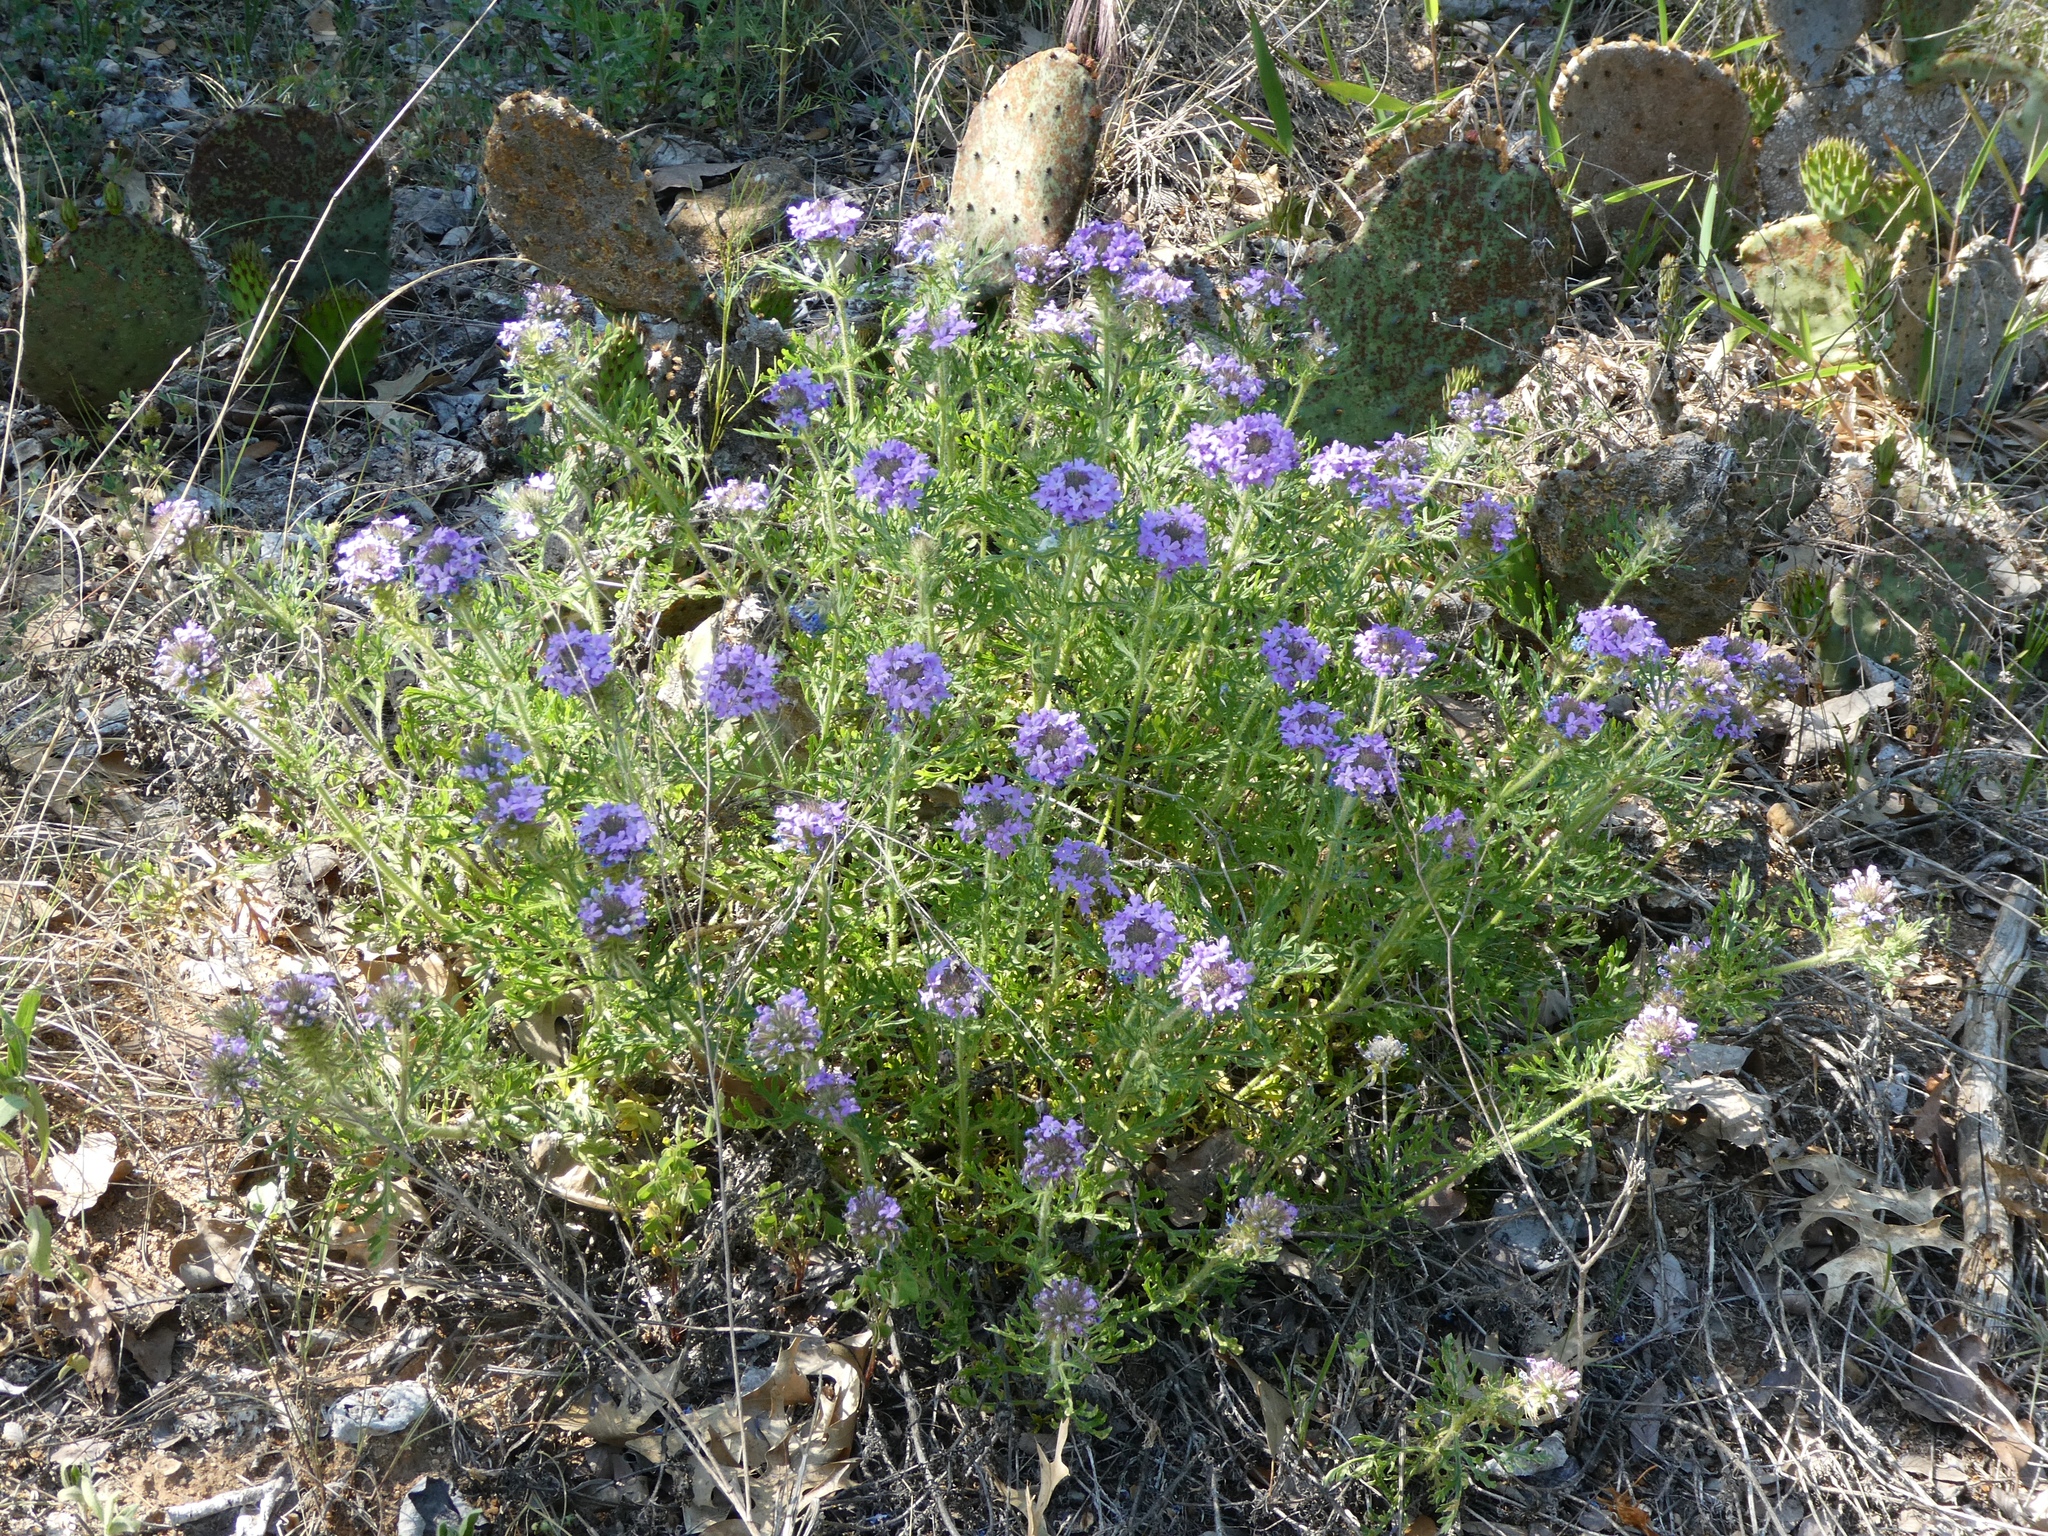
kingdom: Plantae
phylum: Tracheophyta
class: Magnoliopsida
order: Lamiales
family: Verbenaceae
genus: Verbena
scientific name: Verbena bipinnatifida
